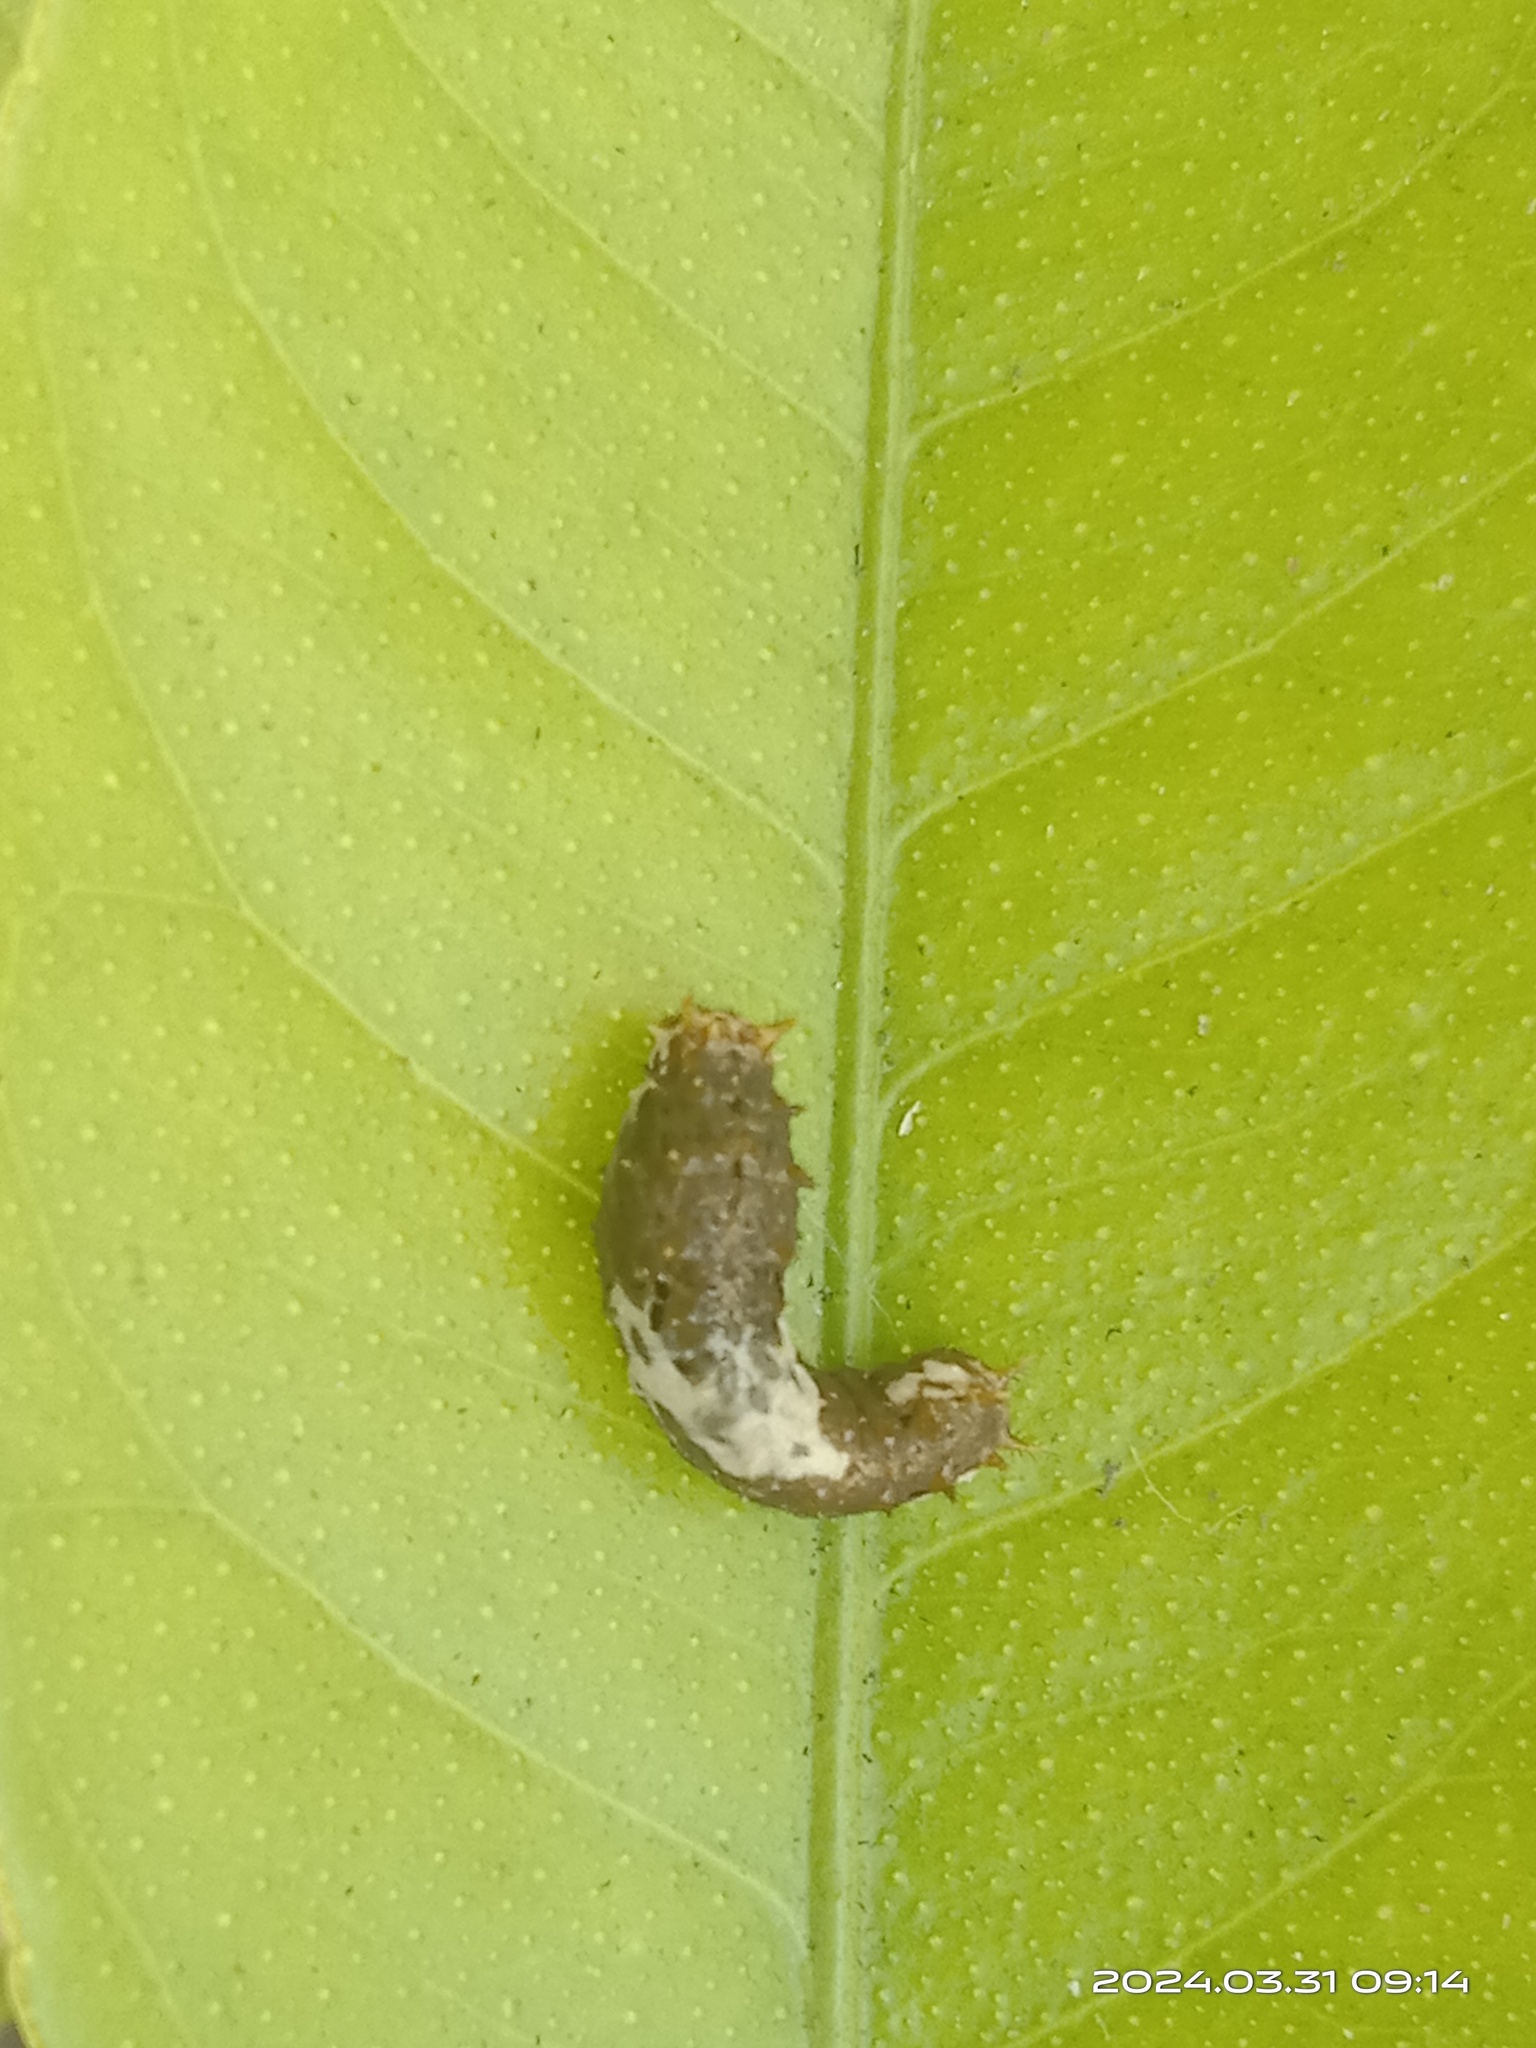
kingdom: Animalia
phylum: Arthropoda
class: Insecta
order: Lepidoptera
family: Papilionidae
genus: Papilio
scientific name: Papilio demoleus
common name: Lime butterfly
